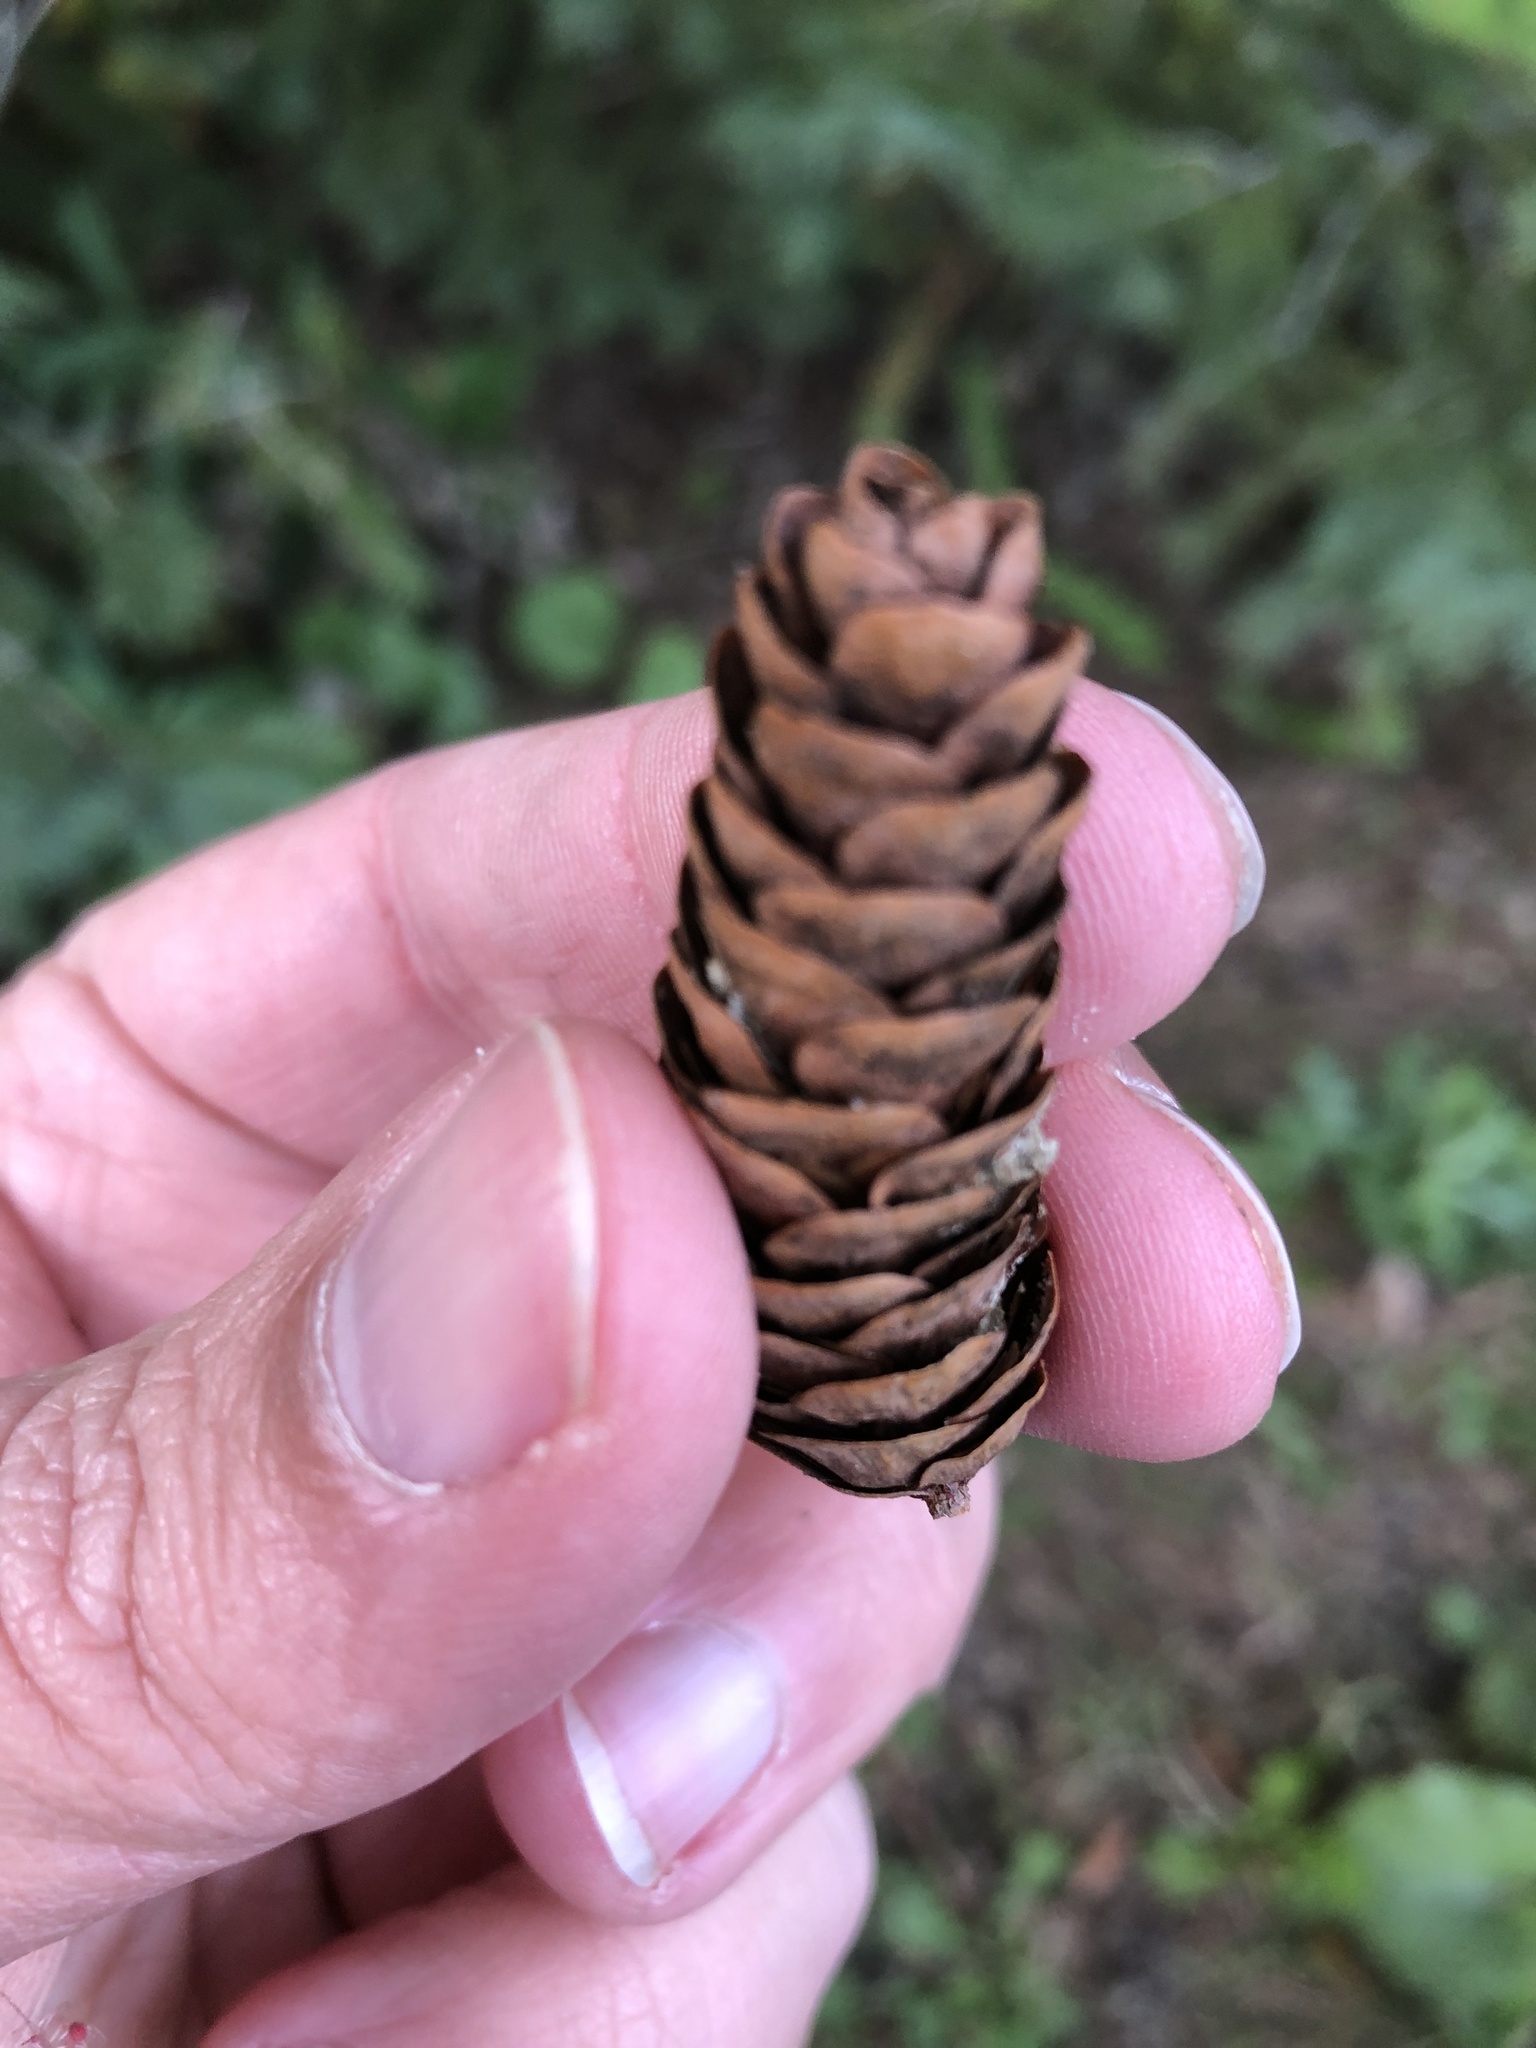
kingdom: Plantae
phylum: Tracheophyta
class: Pinopsida
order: Pinales
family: Pinaceae
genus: Picea
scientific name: Picea glauca
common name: White spruce
